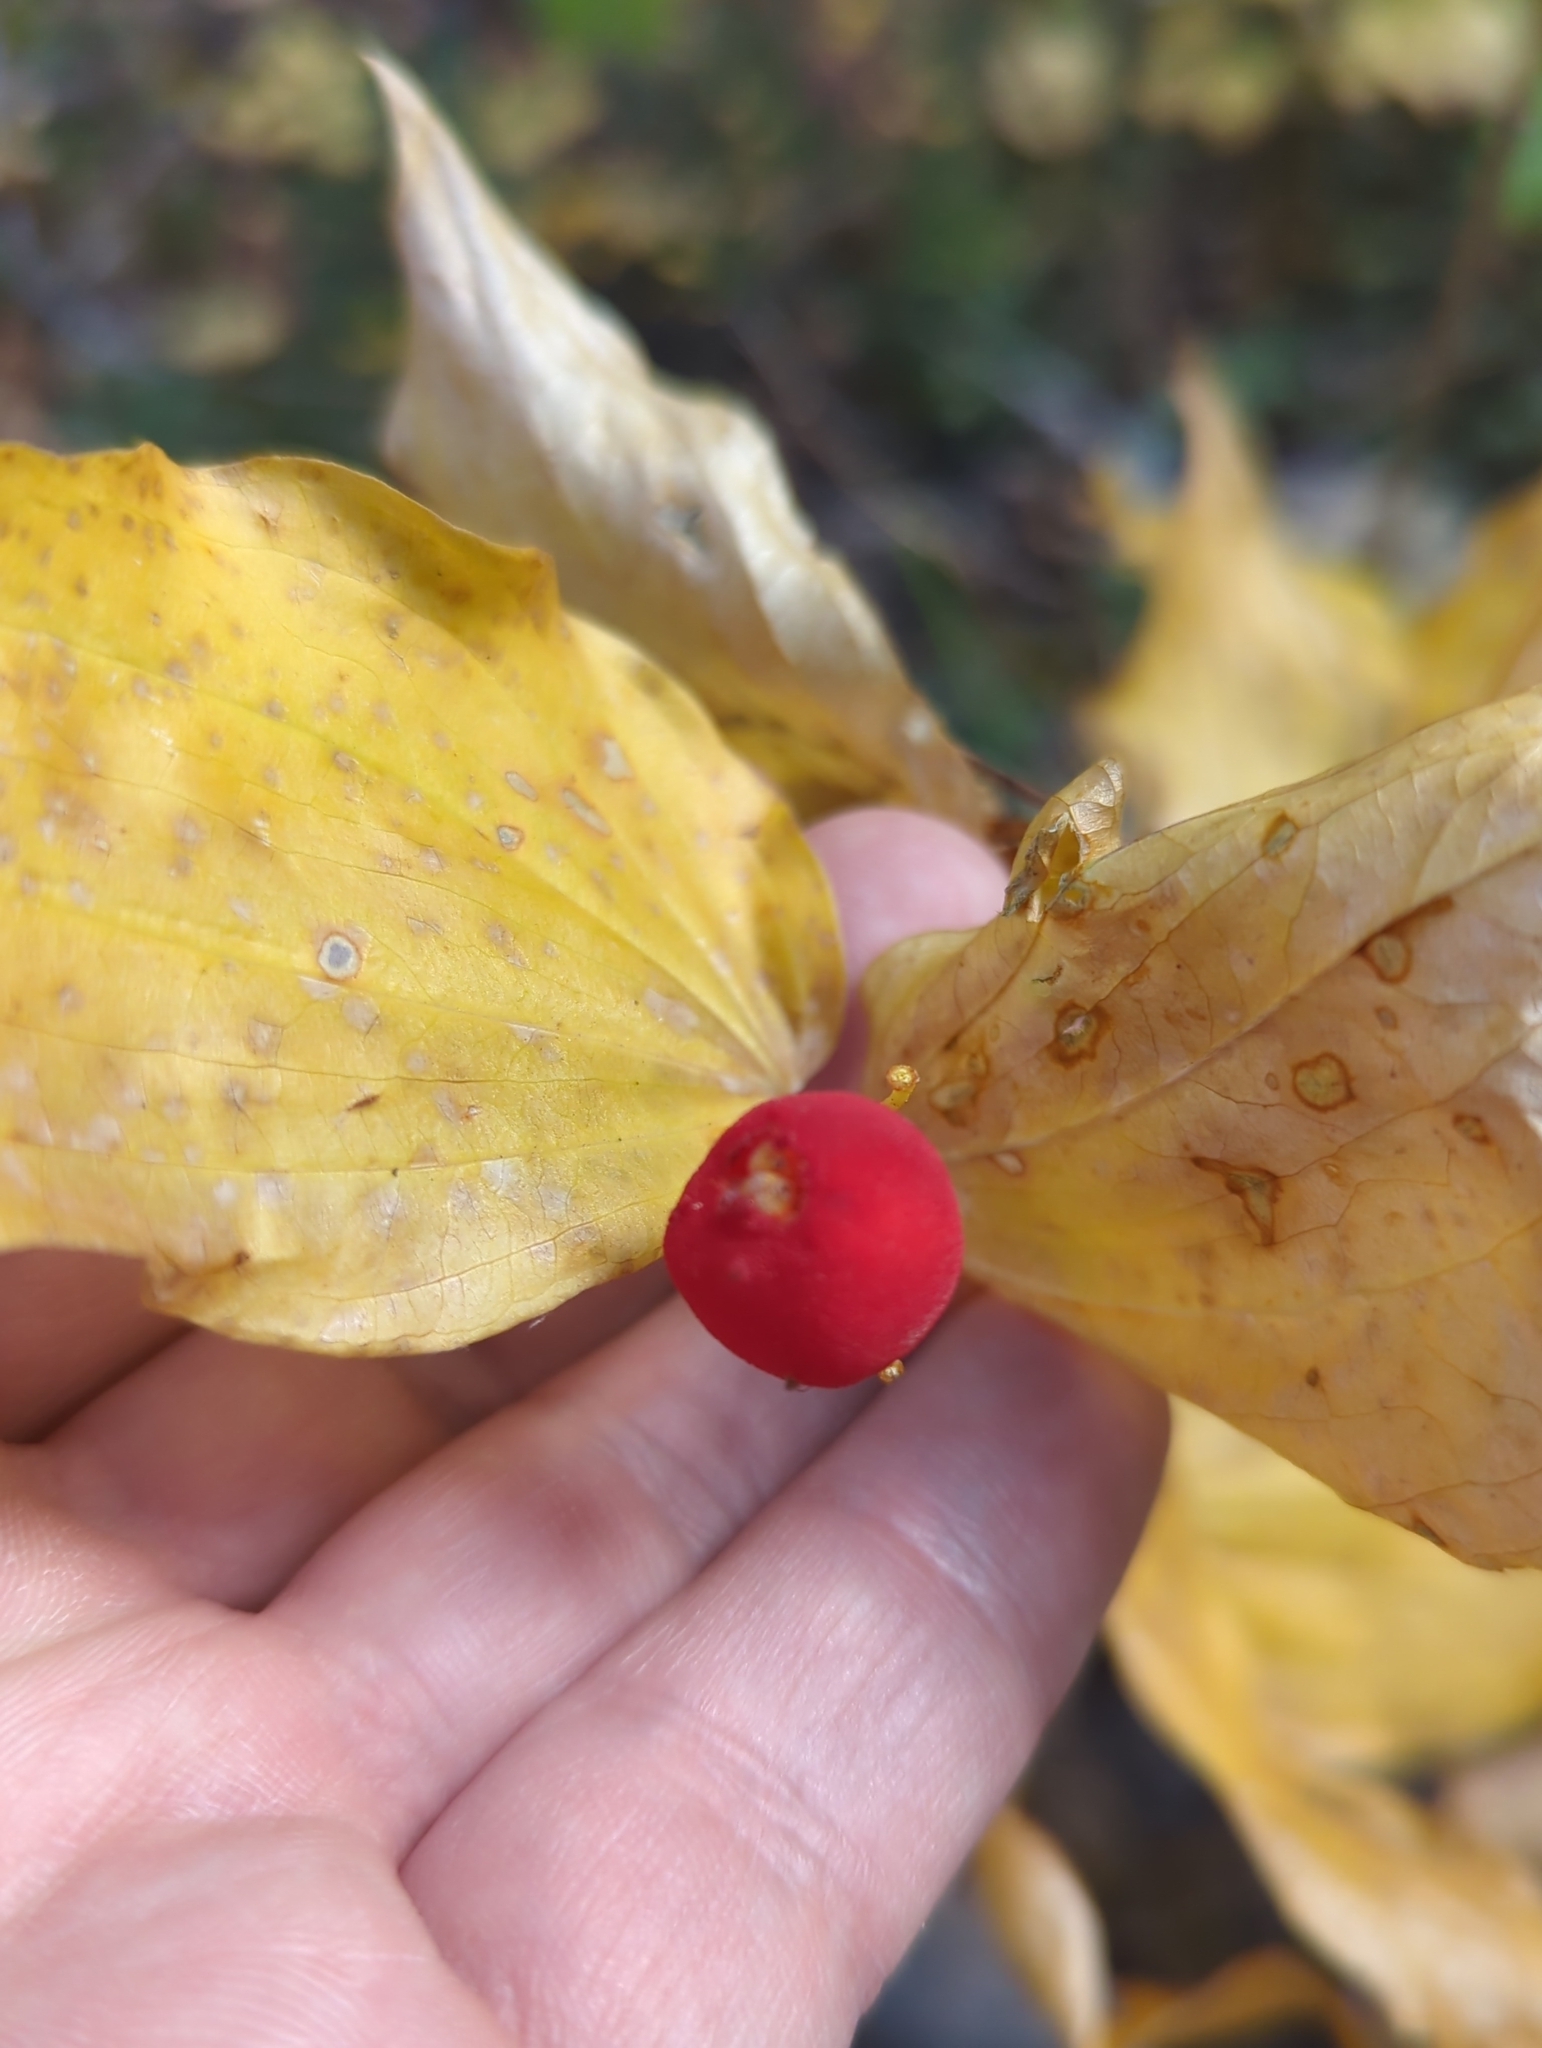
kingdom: Plantae
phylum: Tracheophyta
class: Liliopsida
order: Liliales
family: Liliaceae
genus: Prosartes
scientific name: Prosartes trachycarpa
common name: Rough-fruit fairy-bells
